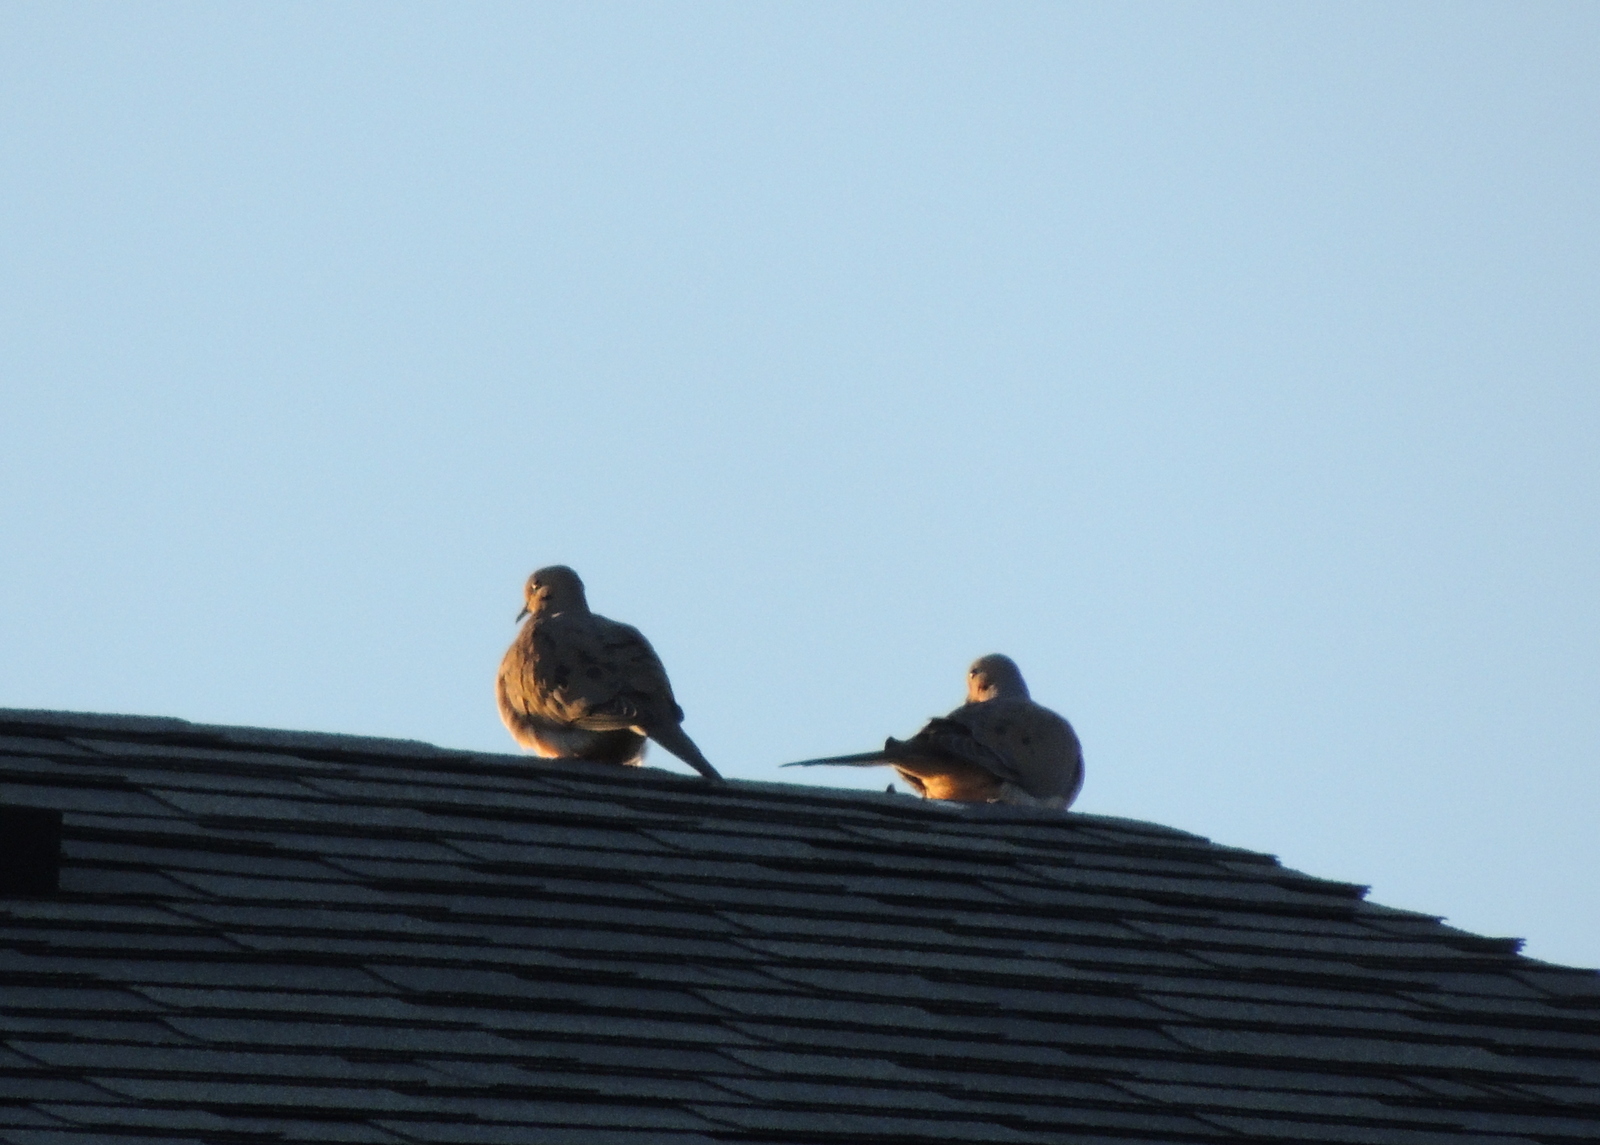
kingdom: Animalia
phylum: Chordata
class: Aves
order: Columbiformes
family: Columbidae
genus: Zenaida
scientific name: Zenaida macroura
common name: Mourning dove
